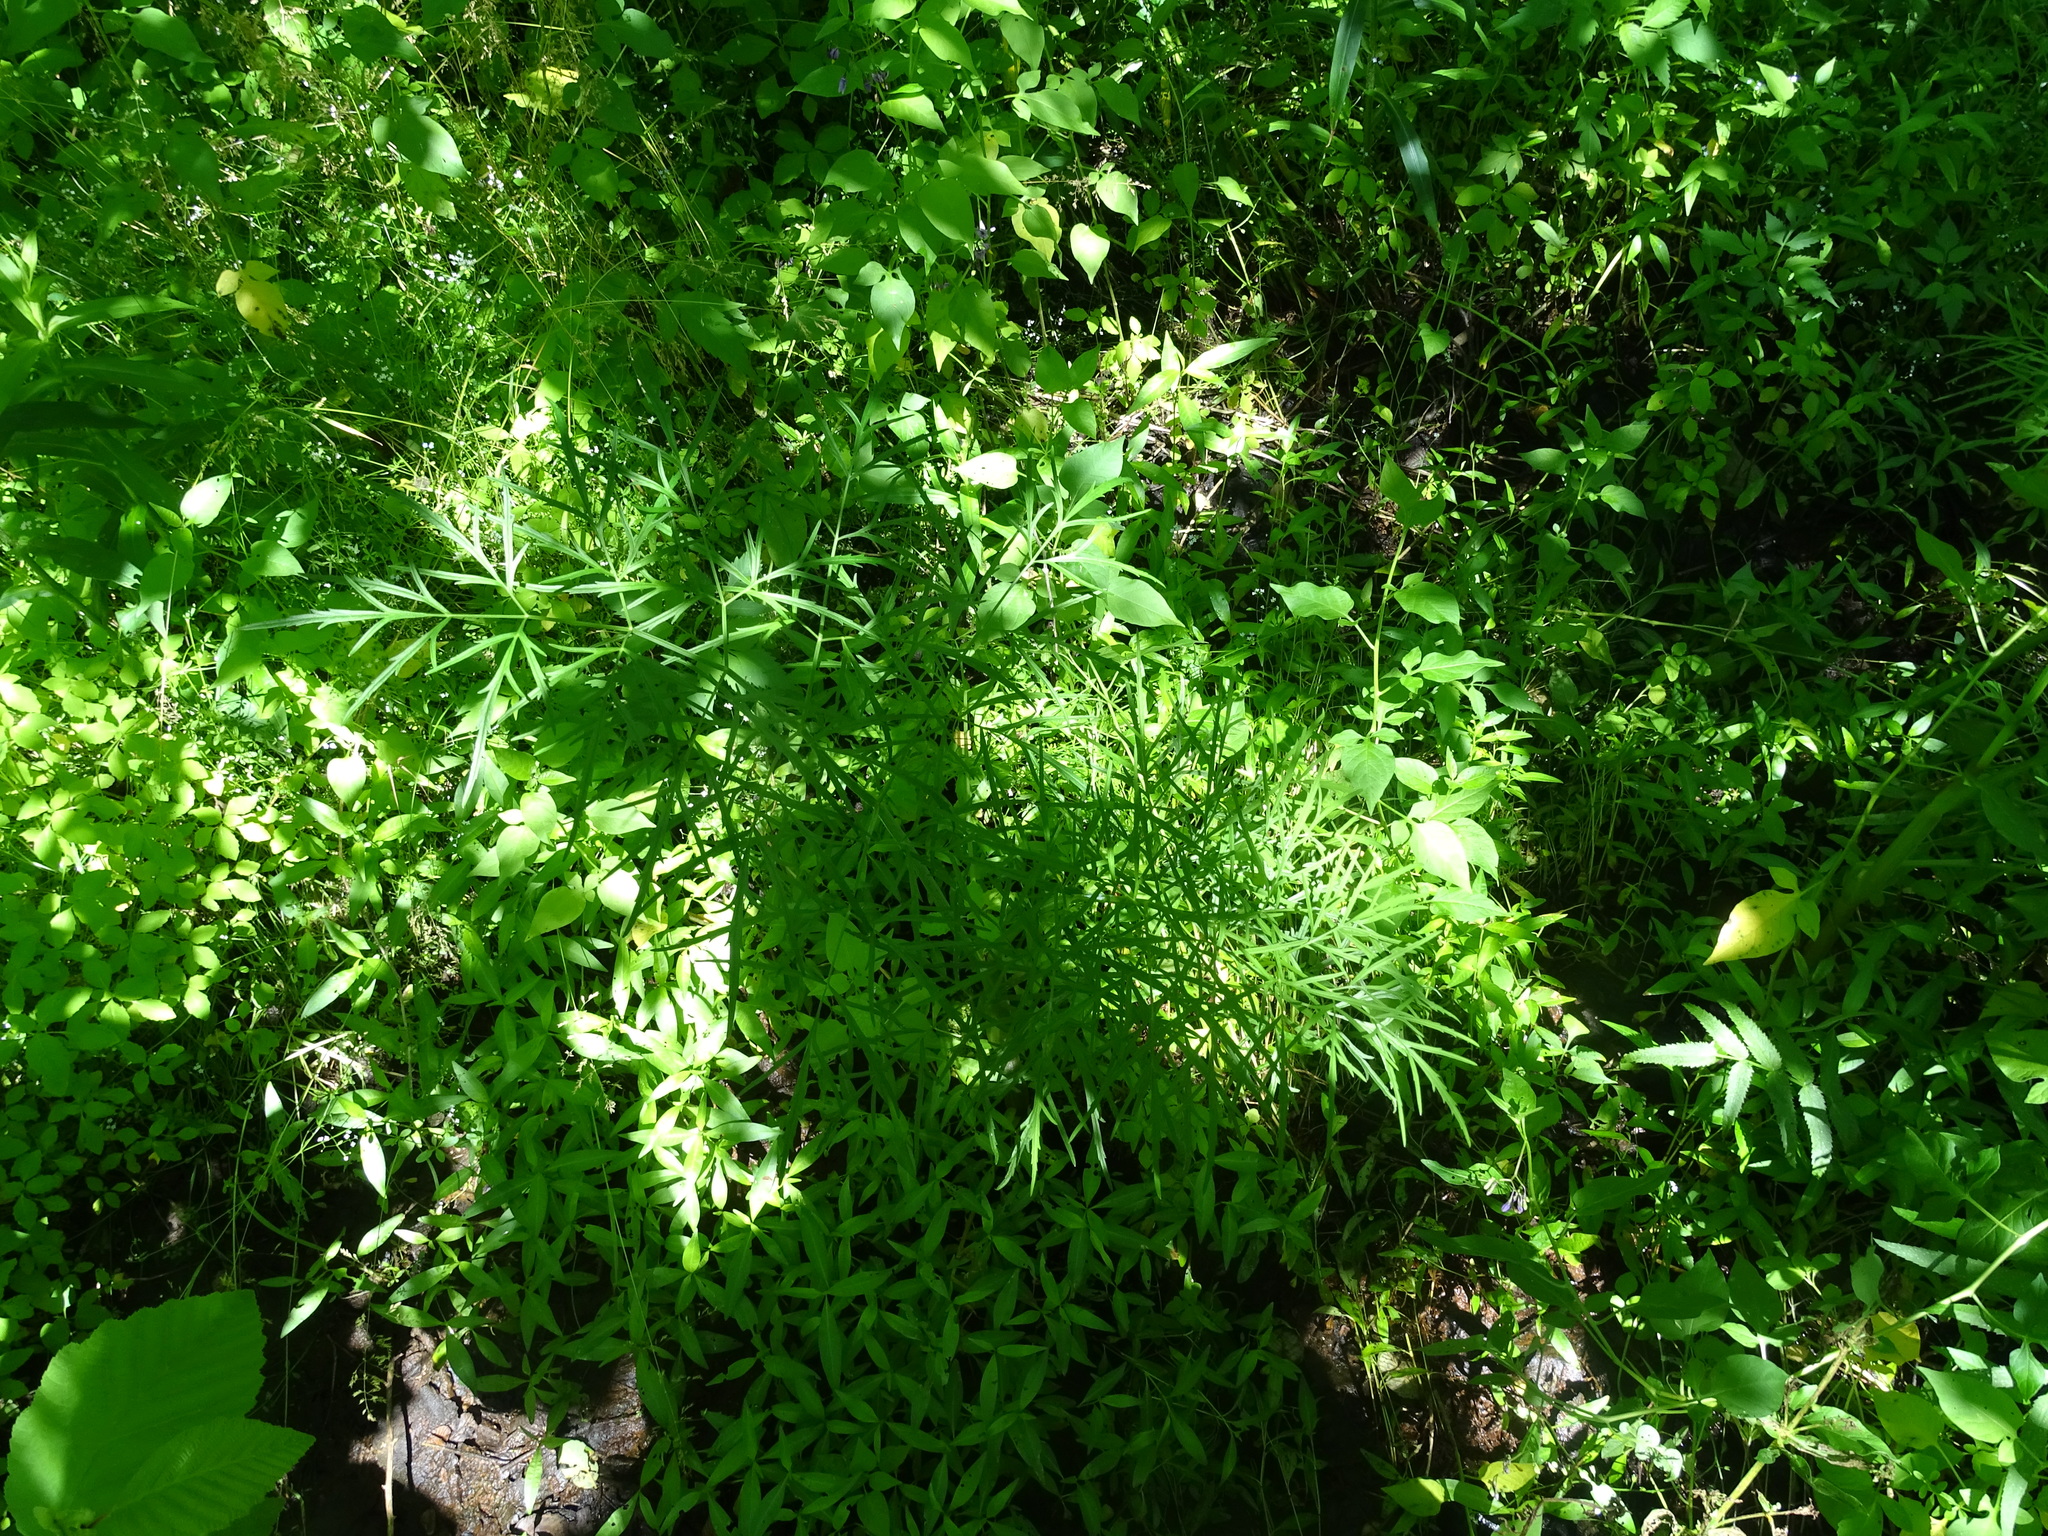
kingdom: Plantae
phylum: Tracheophyta
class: Magnoliopsida
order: Apiales
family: Apiaceae
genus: Cicuta
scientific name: Cicuta bulbifera
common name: Bulb-bearing water-hemlock
